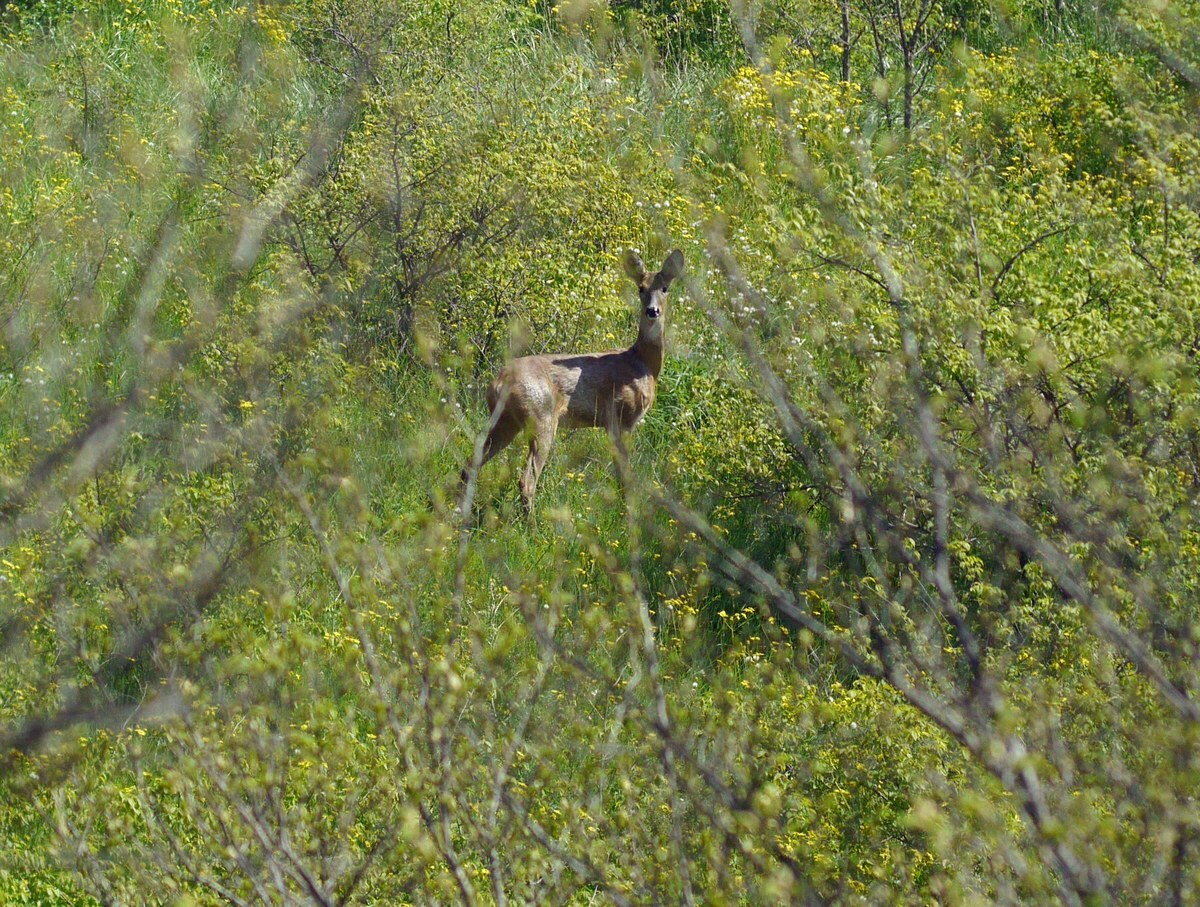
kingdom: Animalia
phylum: Chordata
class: Mammalia
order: Artiodactyla
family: Cervidae
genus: Capreolus
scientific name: Capreolus capreolus
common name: Western roe deer
